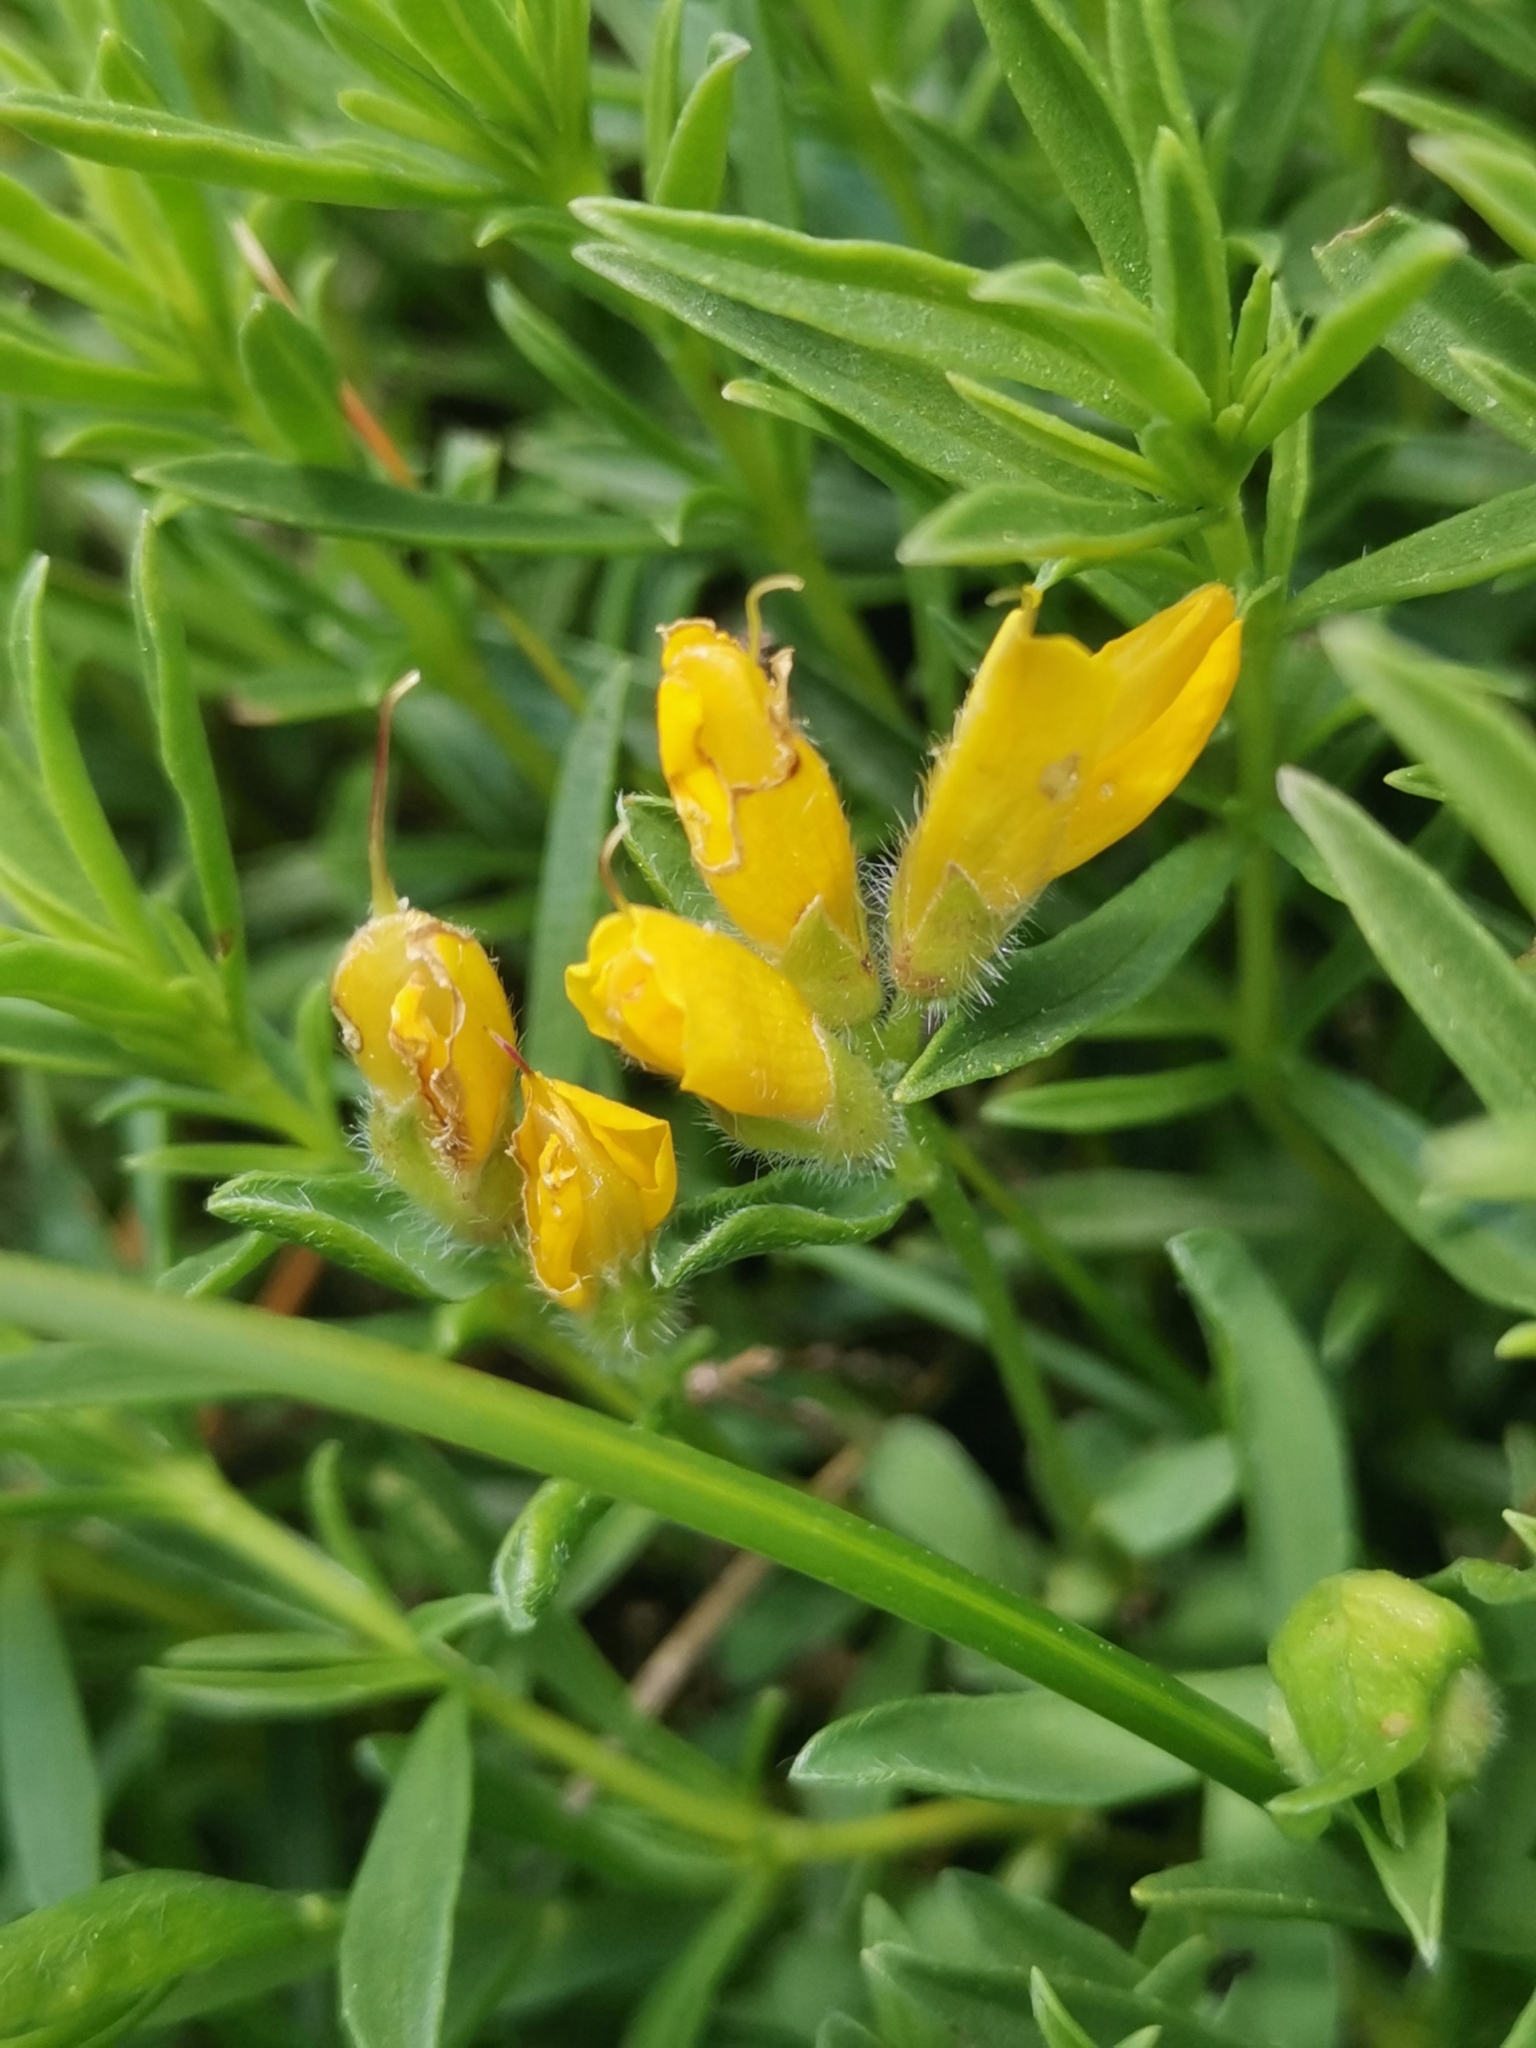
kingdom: Plantae
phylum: Tracheophyta
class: Magnoliopsida
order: Fabales
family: Fabaceae
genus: Genista
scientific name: Genista sericea
